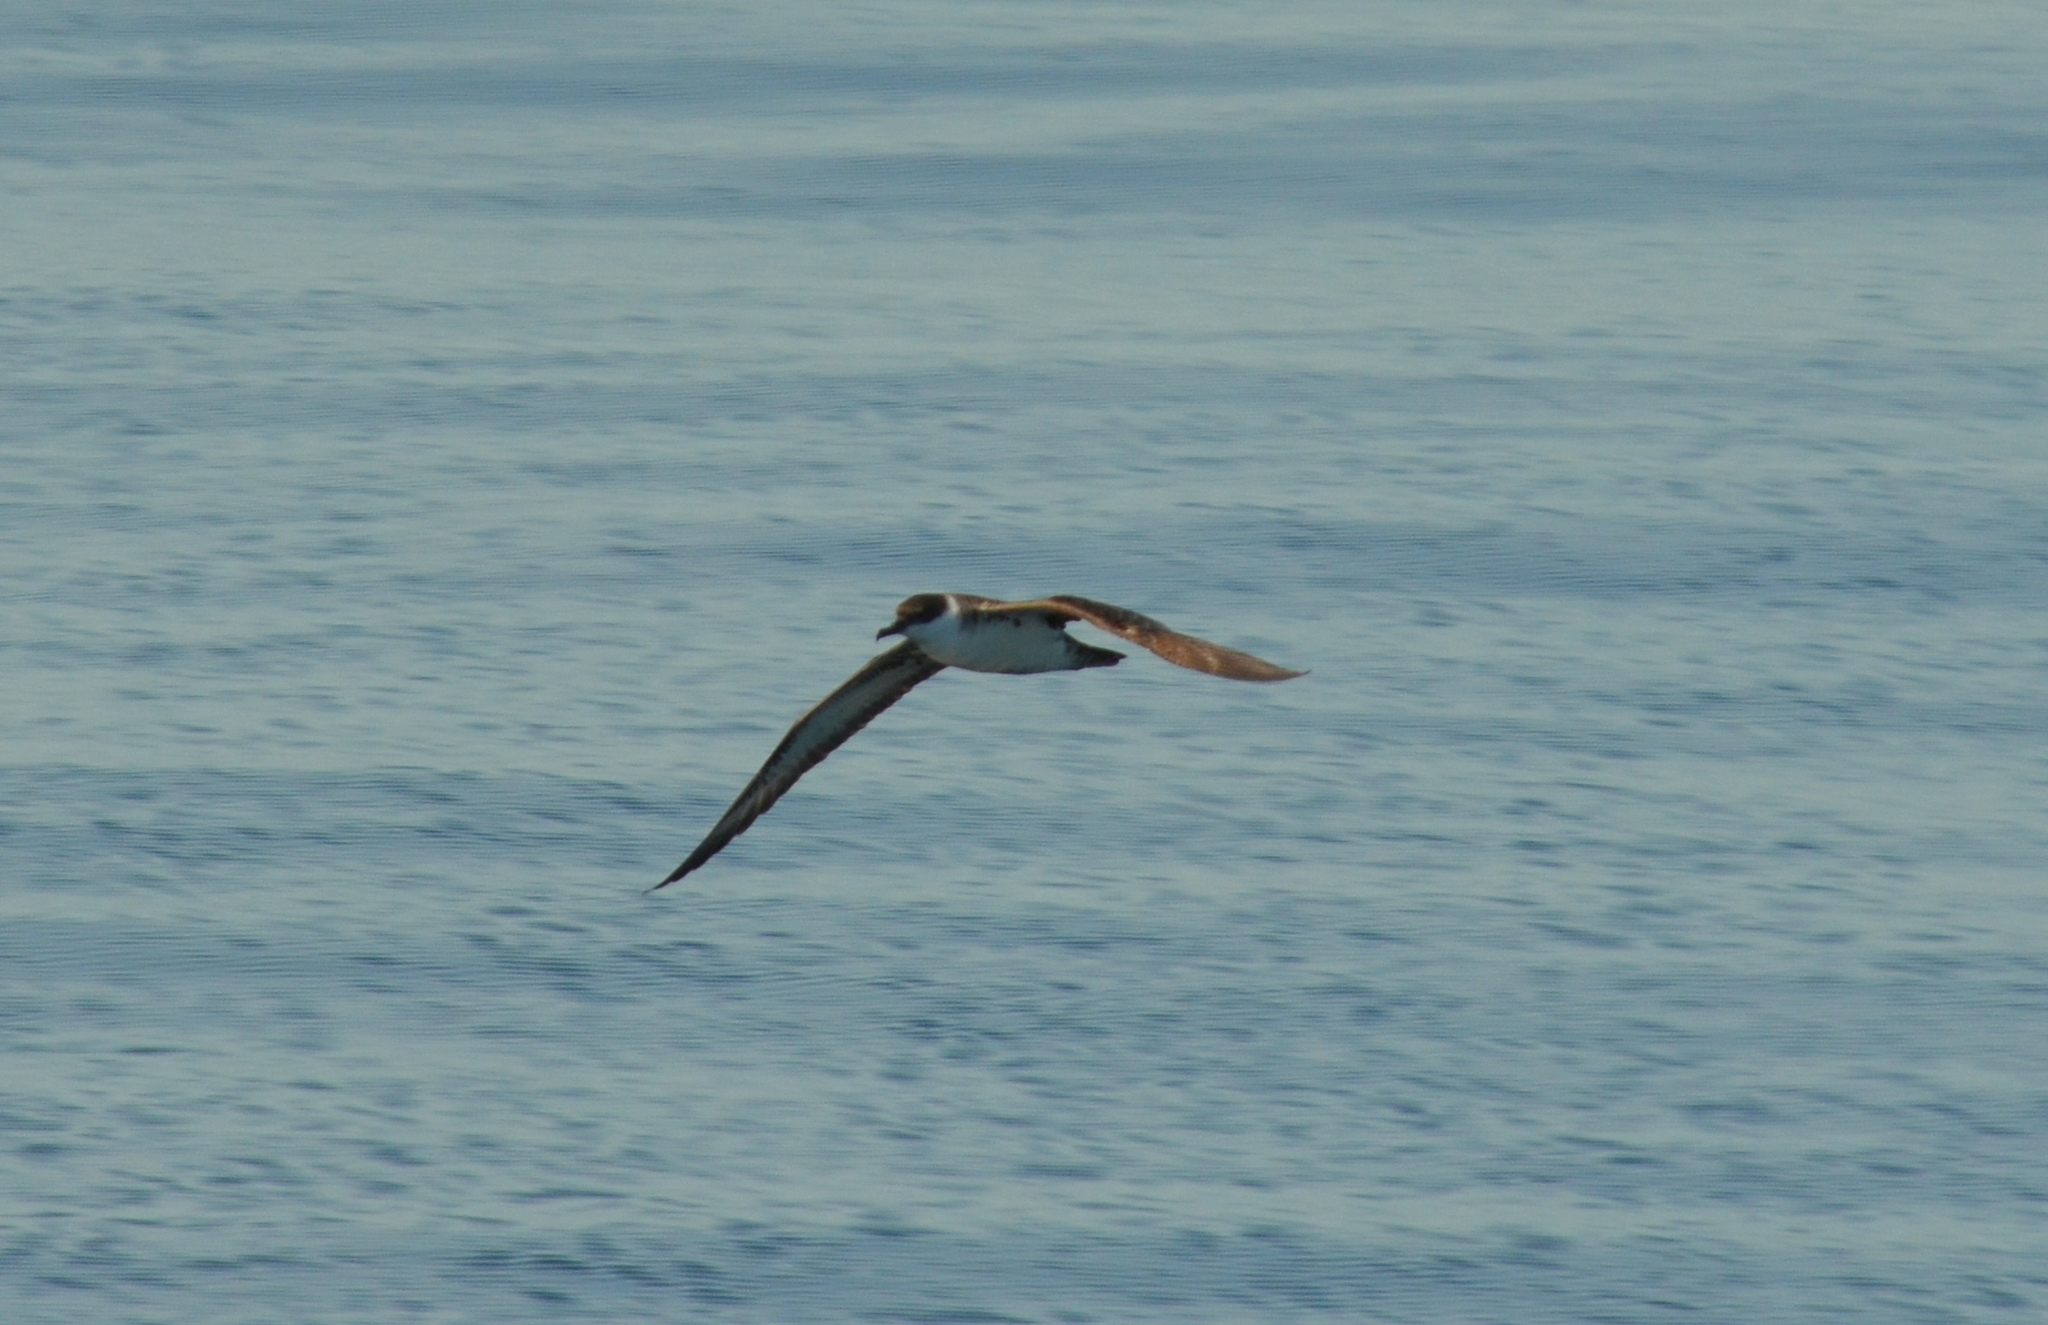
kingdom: Animalia
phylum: Chordata
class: Aves
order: Procellariiformes
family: Procellariidae
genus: Puffinus
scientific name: Puffinus gravis
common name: Great shearwater
